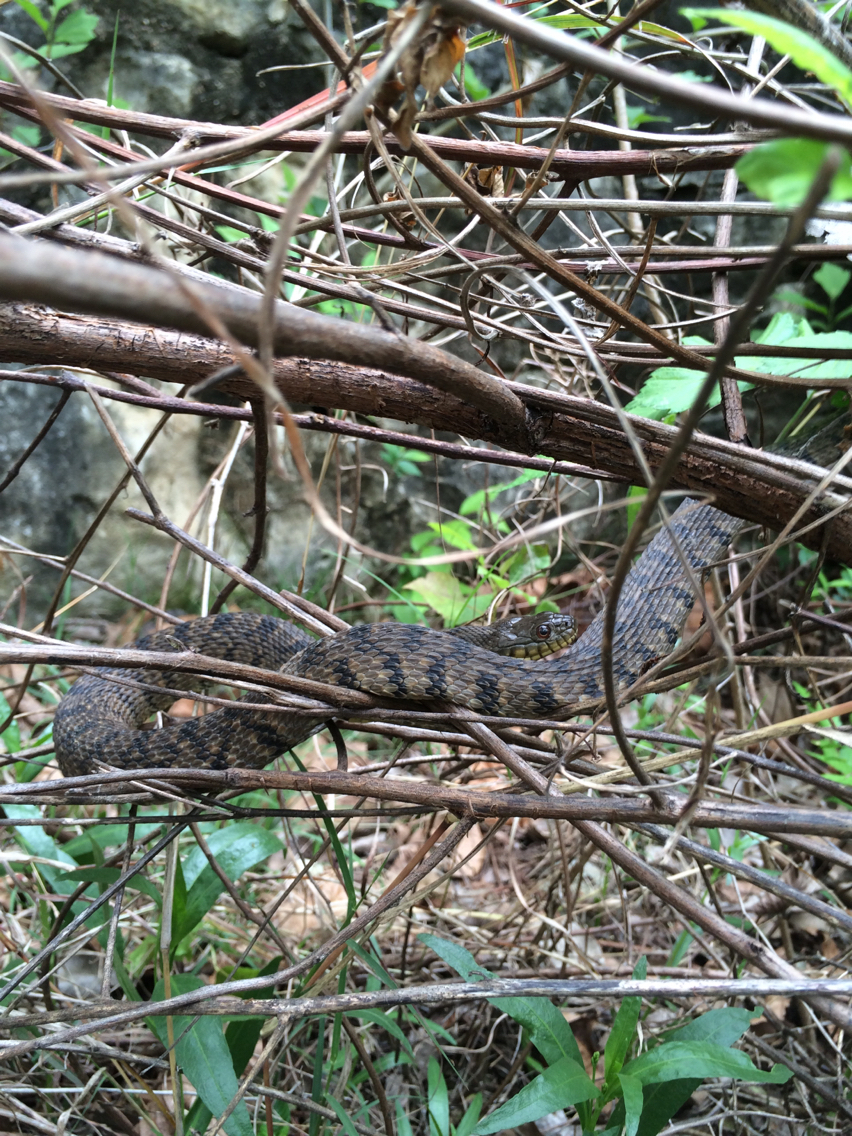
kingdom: Animalia
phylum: Chordata
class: Squamata
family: Colubridae
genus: Nerodia
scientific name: Nerodia rhombifer
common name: Diamondback water snake
